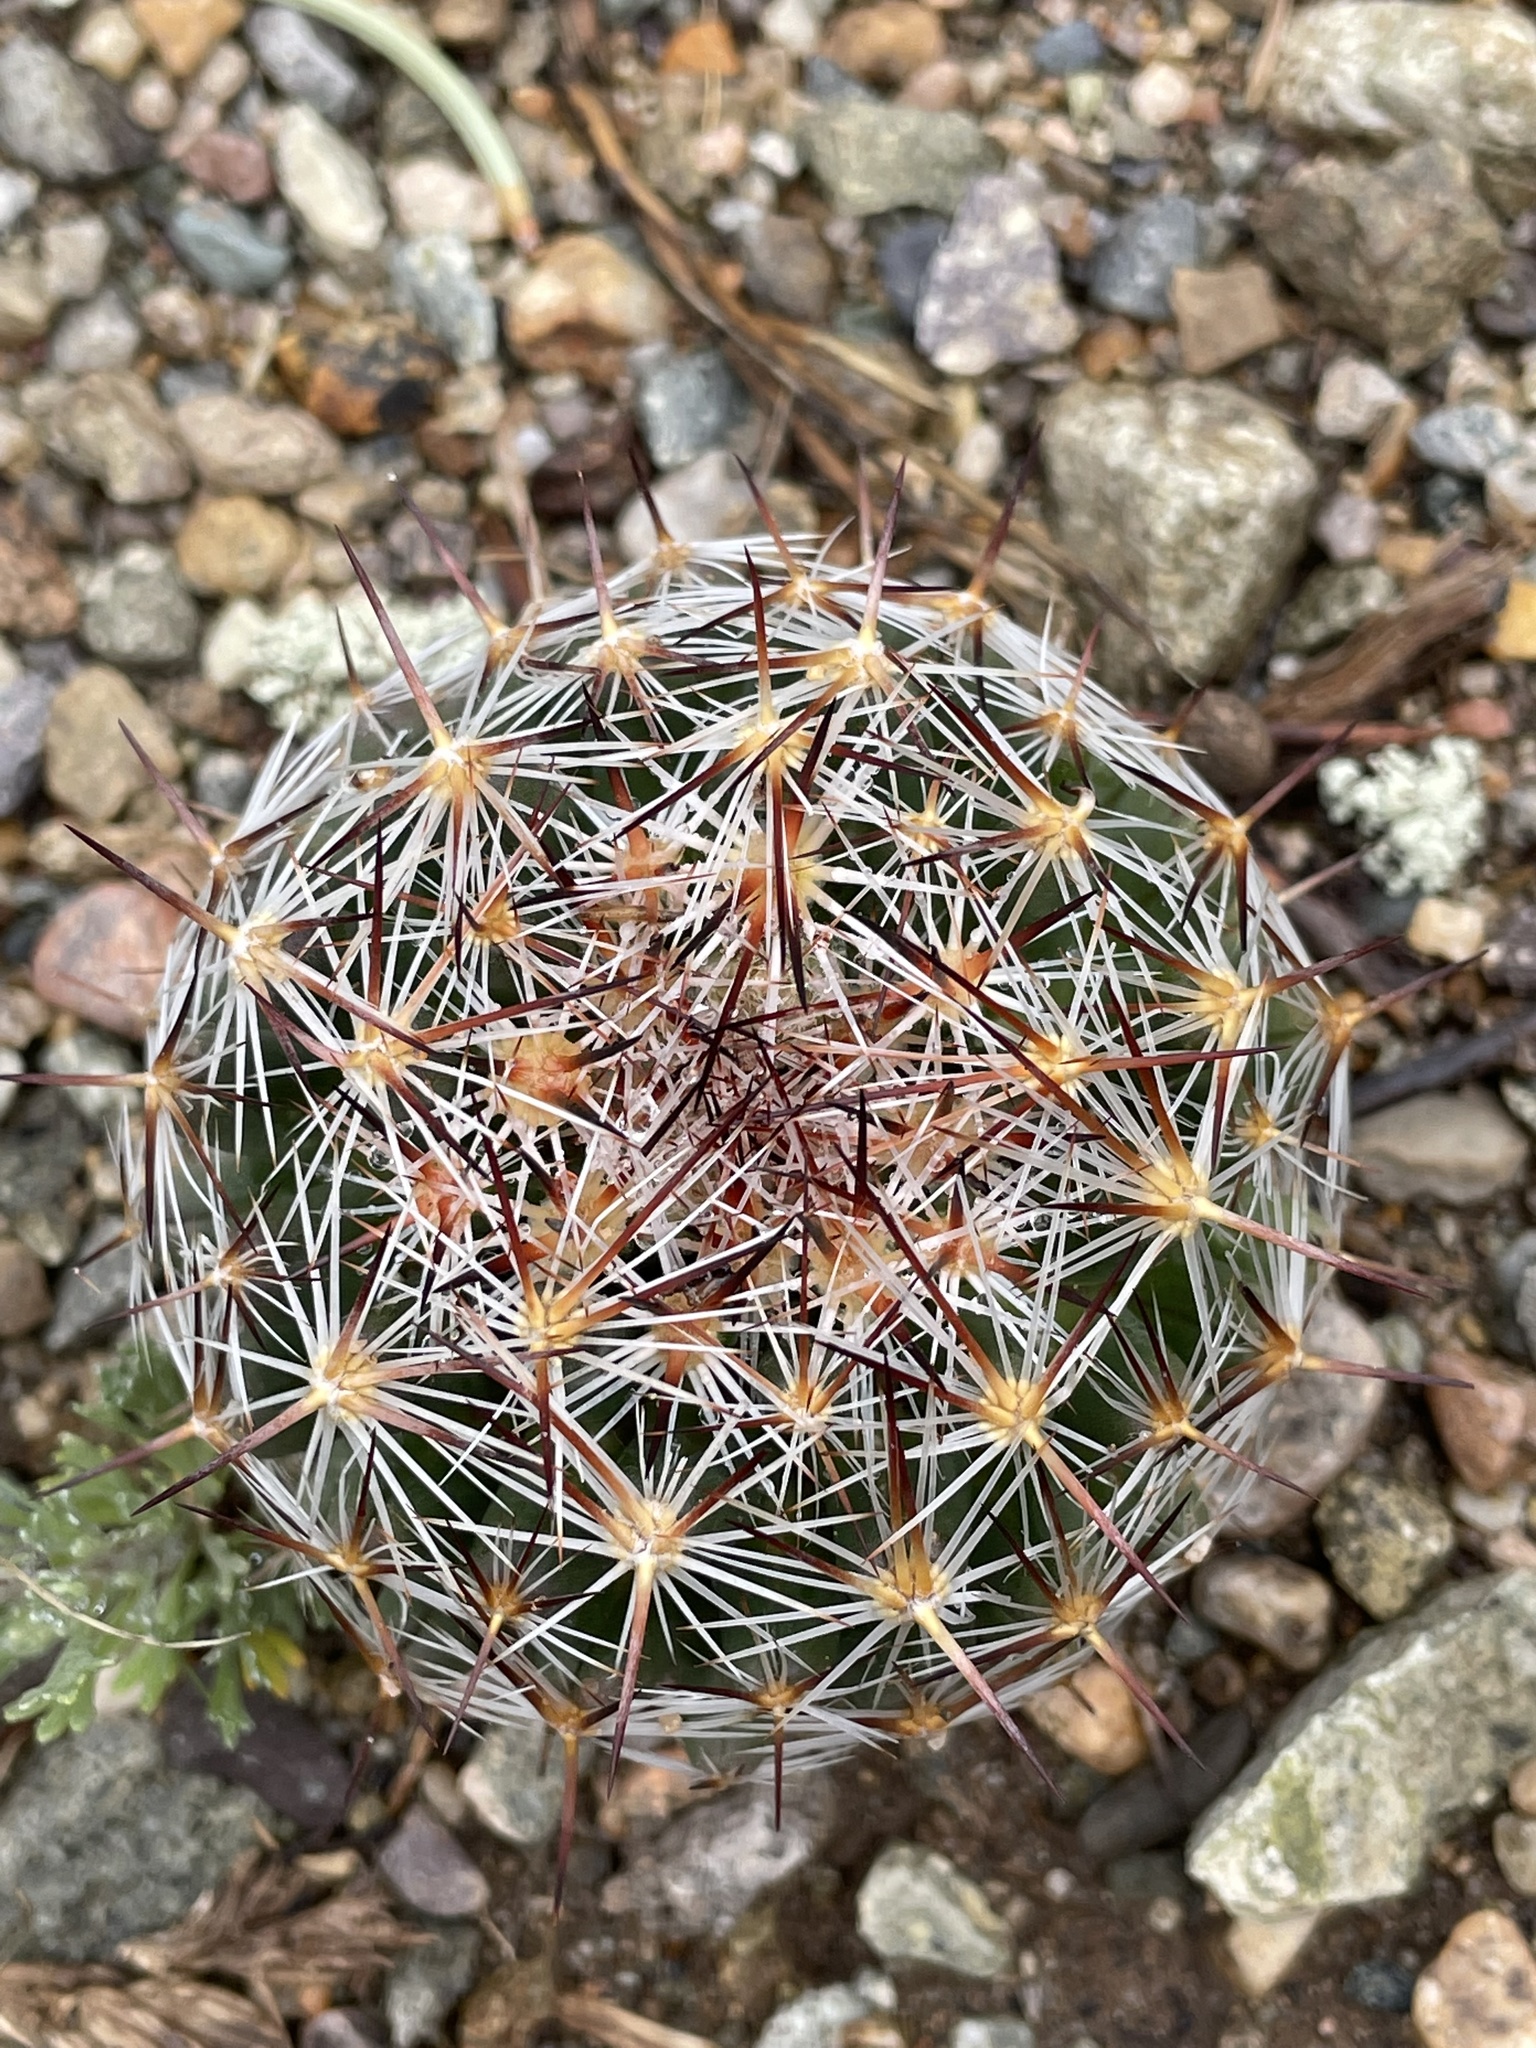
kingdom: Plantae
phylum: Tracheophyta
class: Magnoliopsida
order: Caryophyllales
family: Cactaceae
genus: Pelecyphora
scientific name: Pelecyphora vivipara
